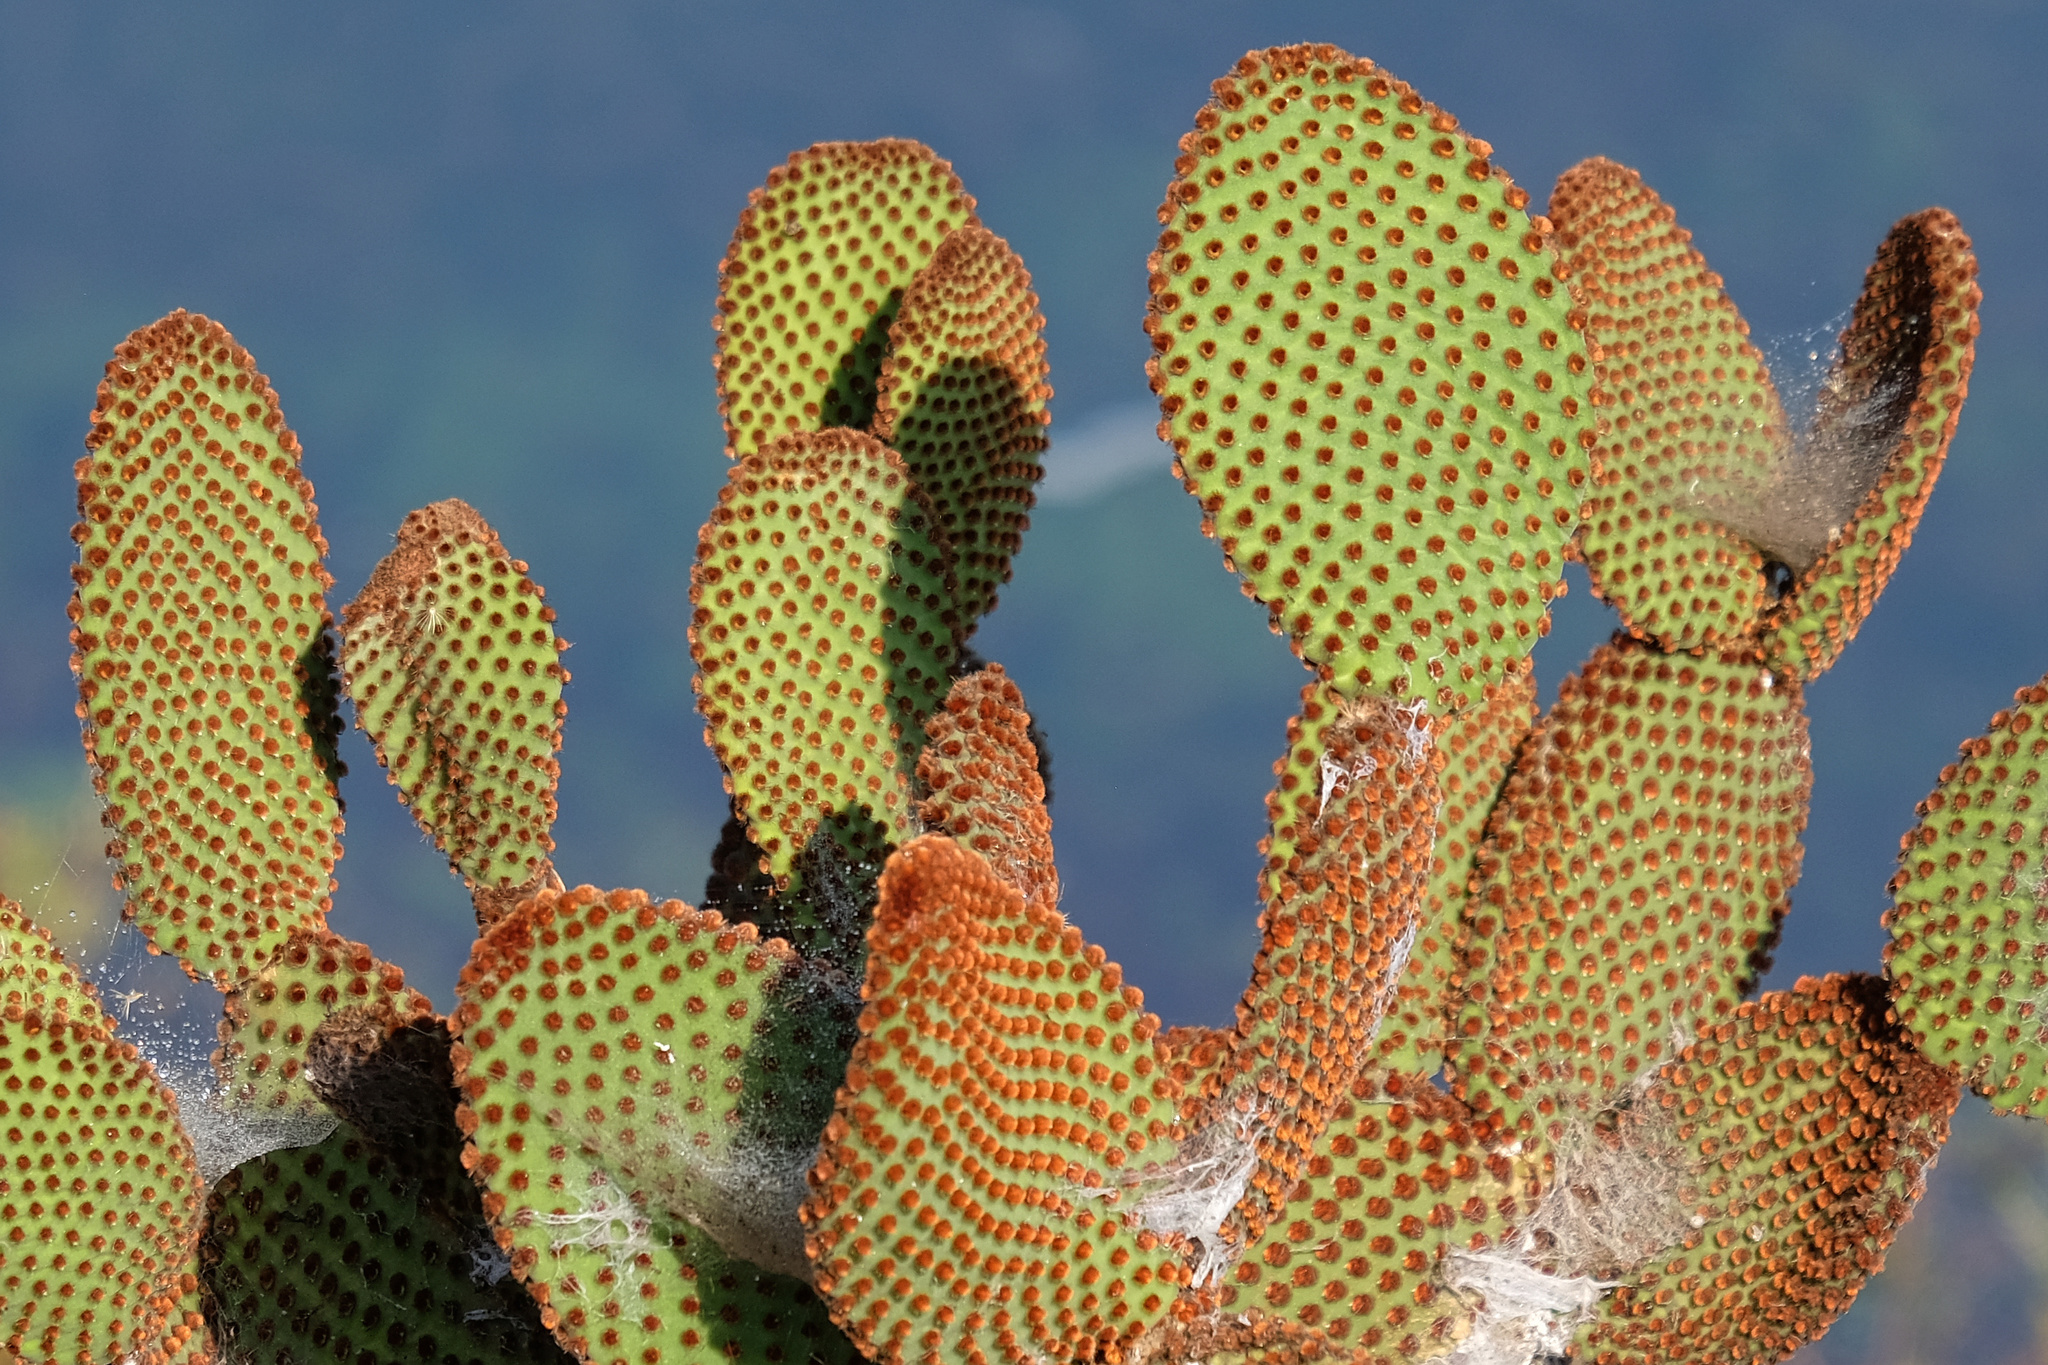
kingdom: Plantae
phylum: Tracheophyta
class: Magnoliopsida
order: Caryophyllales
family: Cactaceae
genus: Opuntia
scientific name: Opuntia microdasys
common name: Angel's-wings
